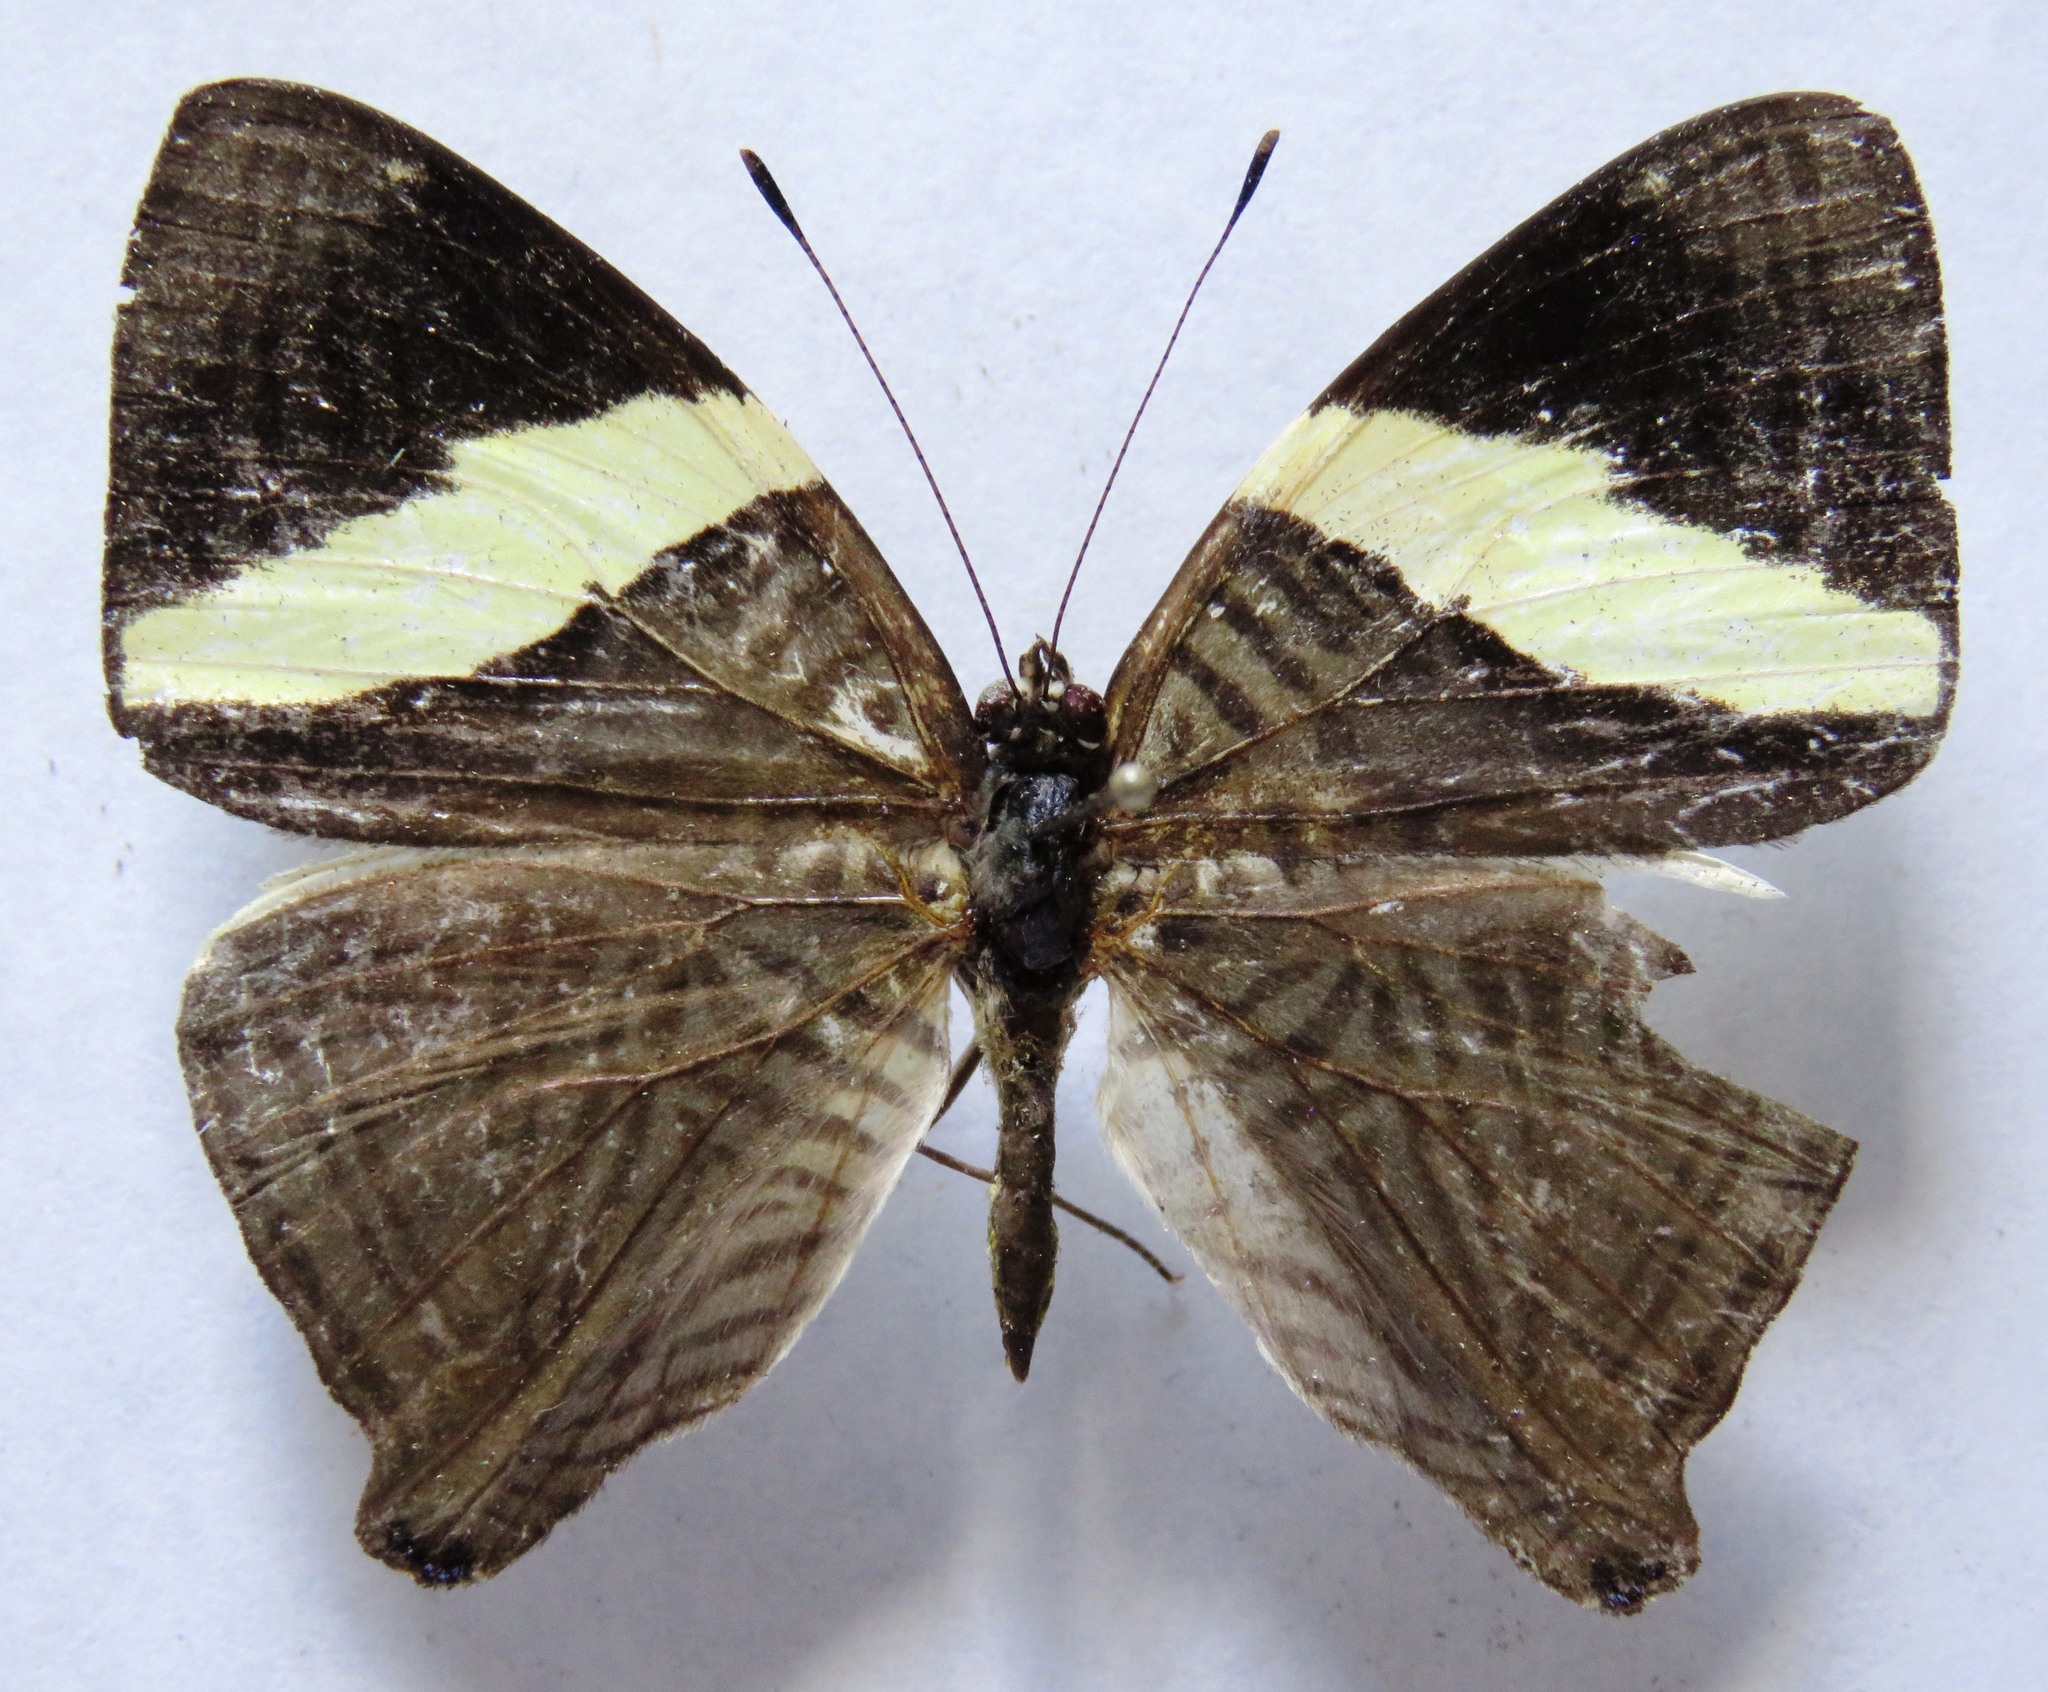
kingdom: Animalia
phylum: Arthropoda
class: Insecta
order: Lepidoptera
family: Nymphalidae
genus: Colobura
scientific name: Colobura dirce
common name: Dirce beauty
